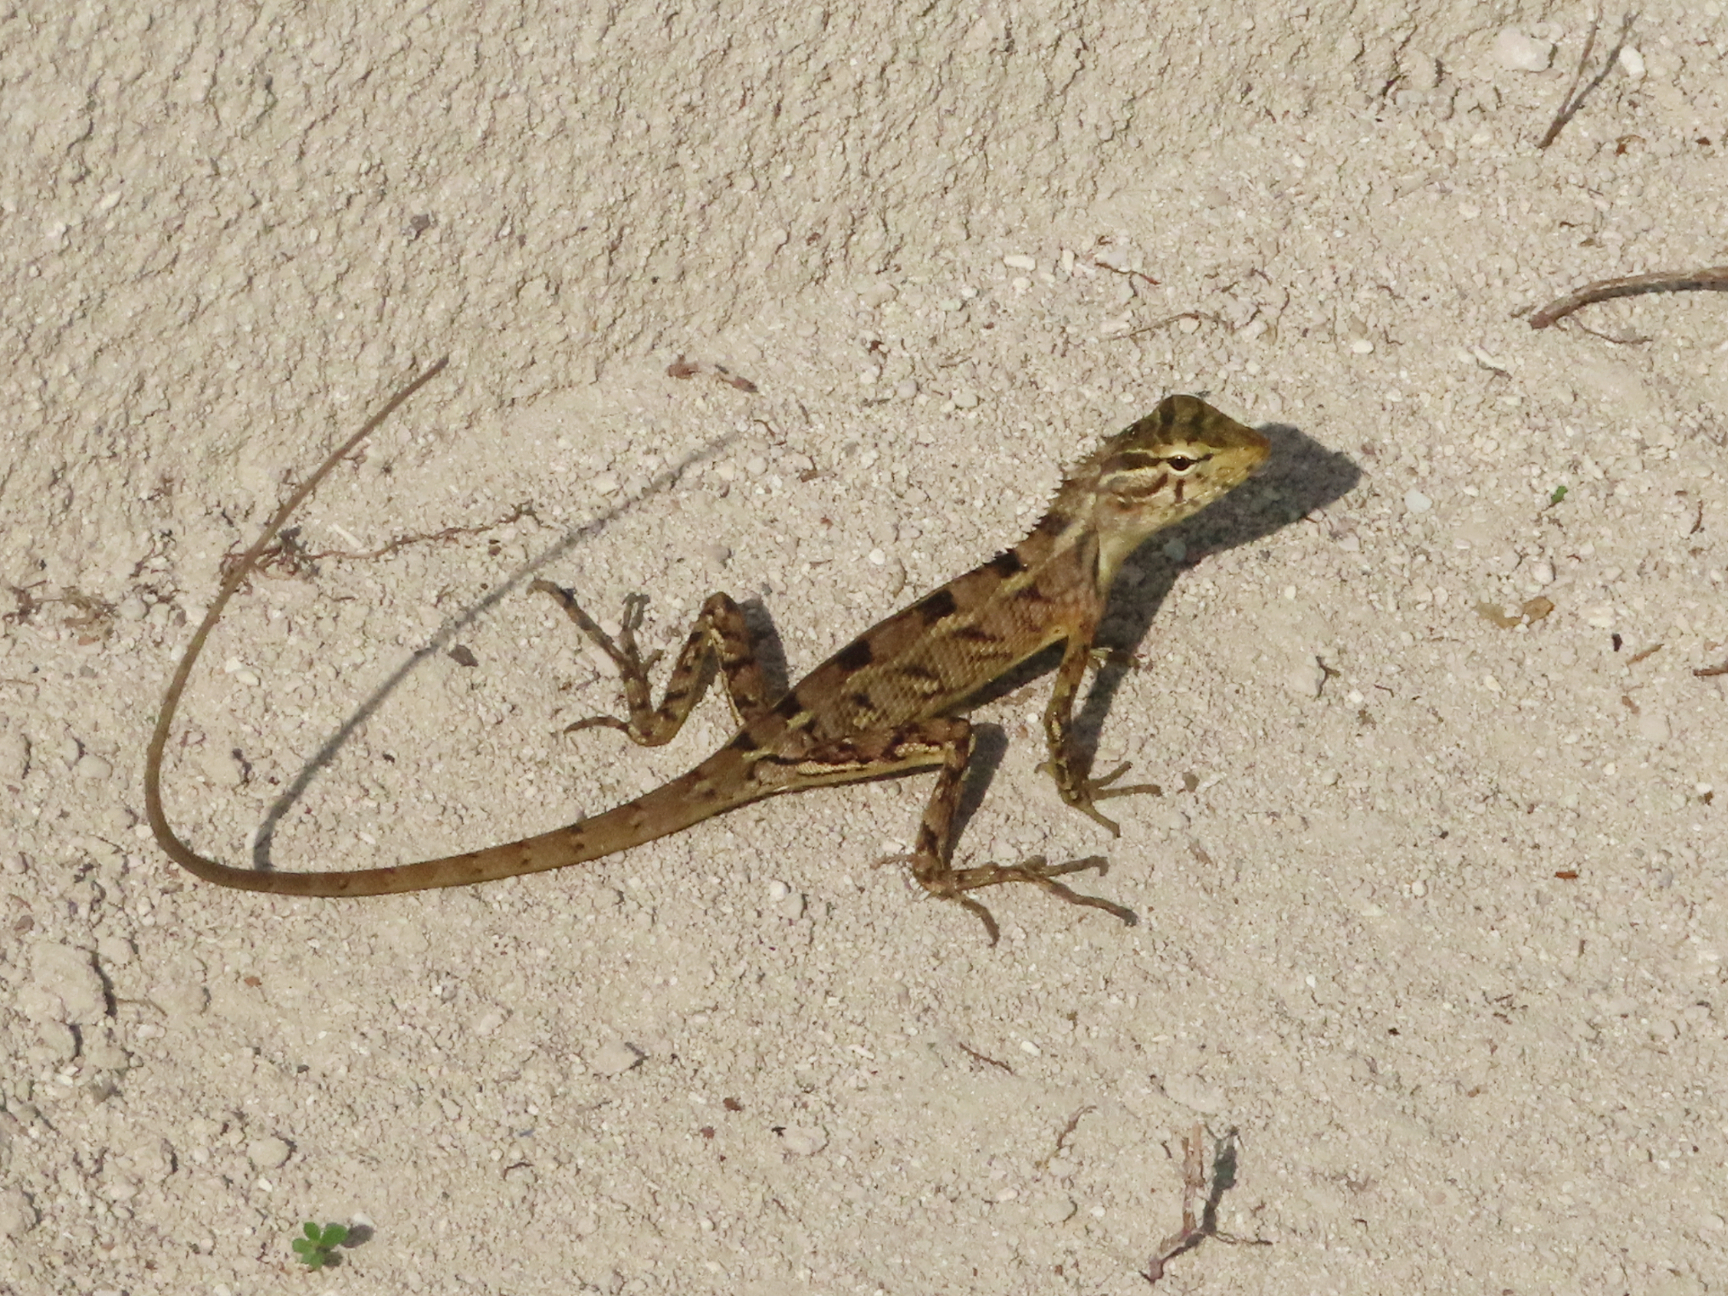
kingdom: Animalia
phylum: Chordata
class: Squamata
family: Agamidae
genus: Calotes
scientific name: Calotes versicolor
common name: Oriental garden lizard
